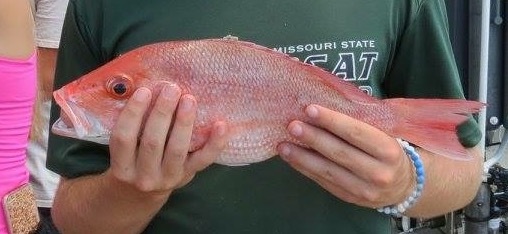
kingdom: Animalia
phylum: Chordata
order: Perciformes
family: Lutjanidae
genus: Lutjanus
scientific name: Lutjanus campechanus
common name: Red snapper
